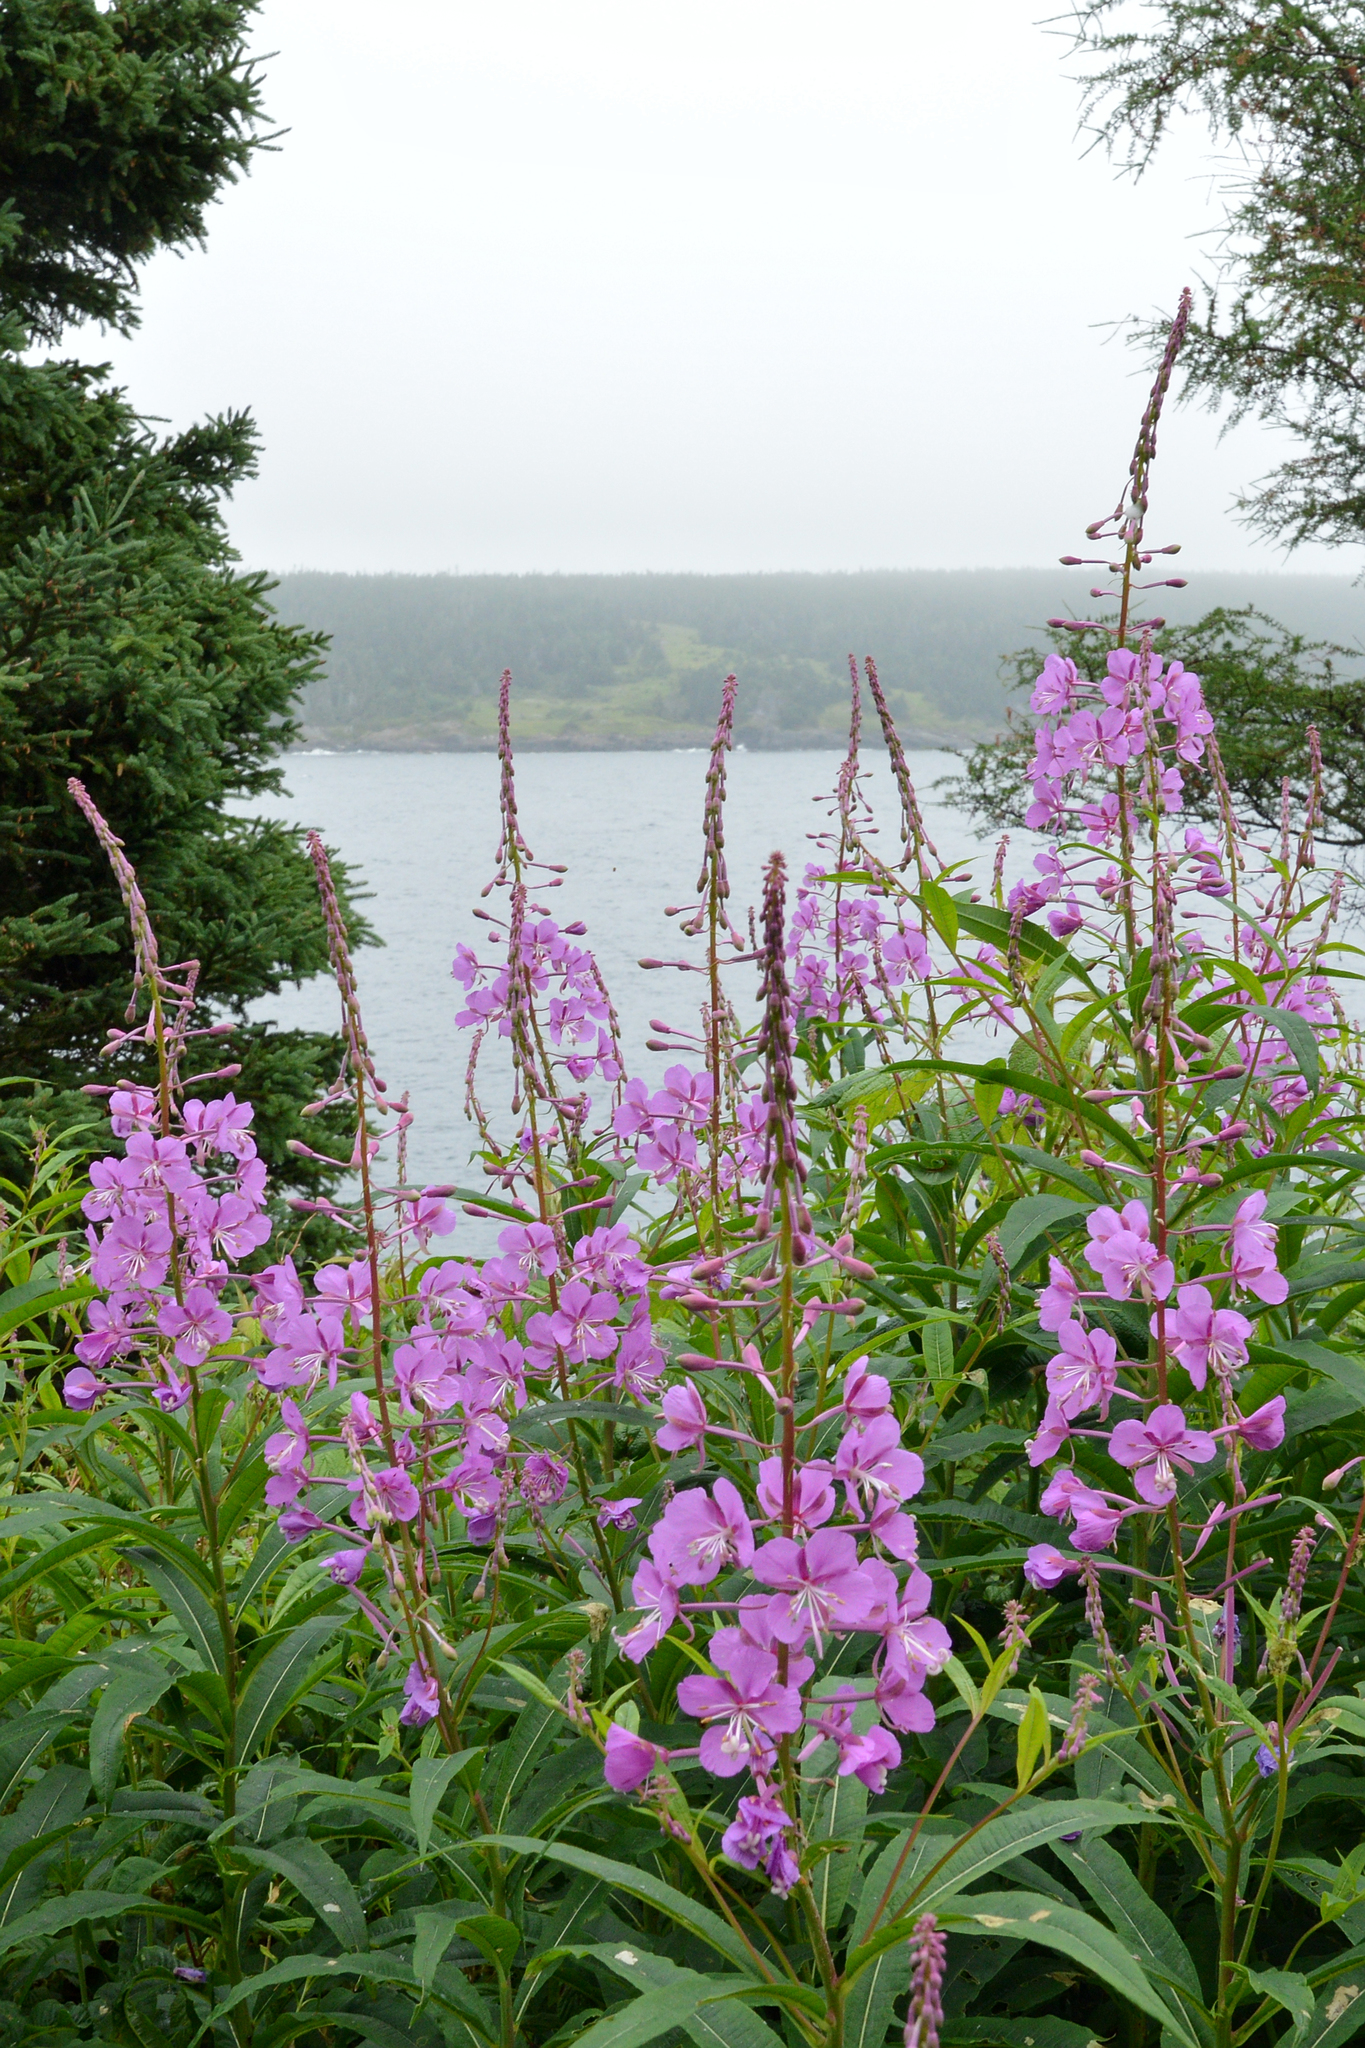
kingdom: Plantae
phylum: Tracheophyta
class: Magnoliopsida
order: Myrtales
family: Onagraceae
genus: Chamaenerion
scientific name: Chamaenerion angustifolium
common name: Fireweed
